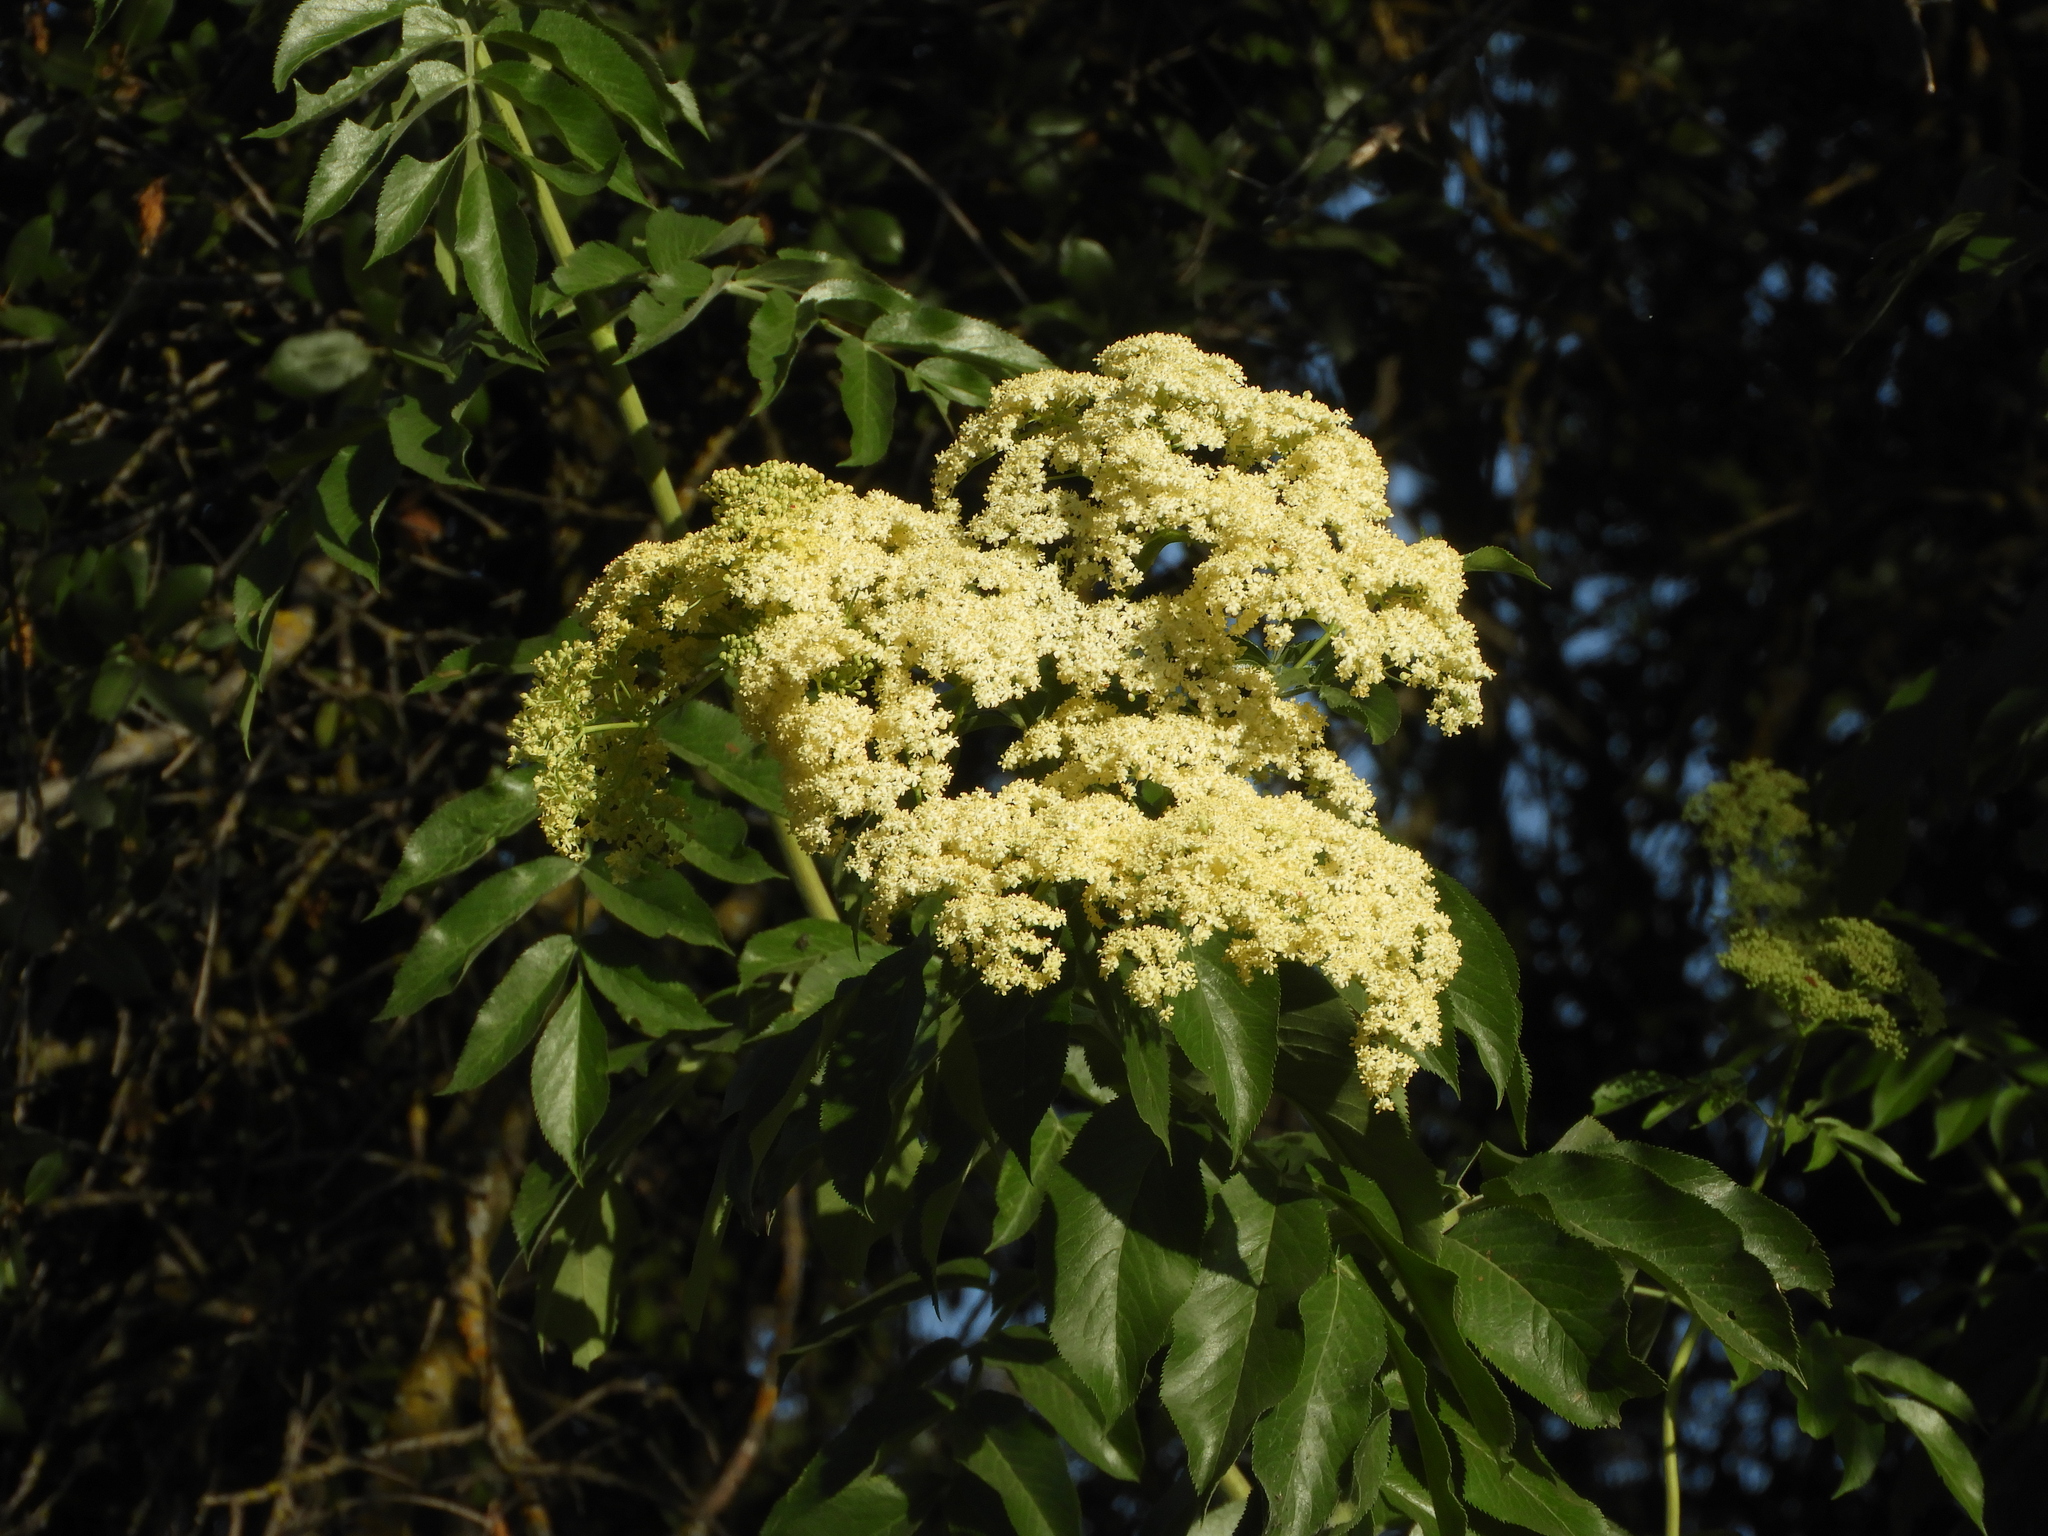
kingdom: Plantae
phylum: Tracheophyta
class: Magnoliopsida
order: Dipsacales
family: Viburnaceae
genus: Sambucus
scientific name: Sambucus cerulea
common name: Blue elder
